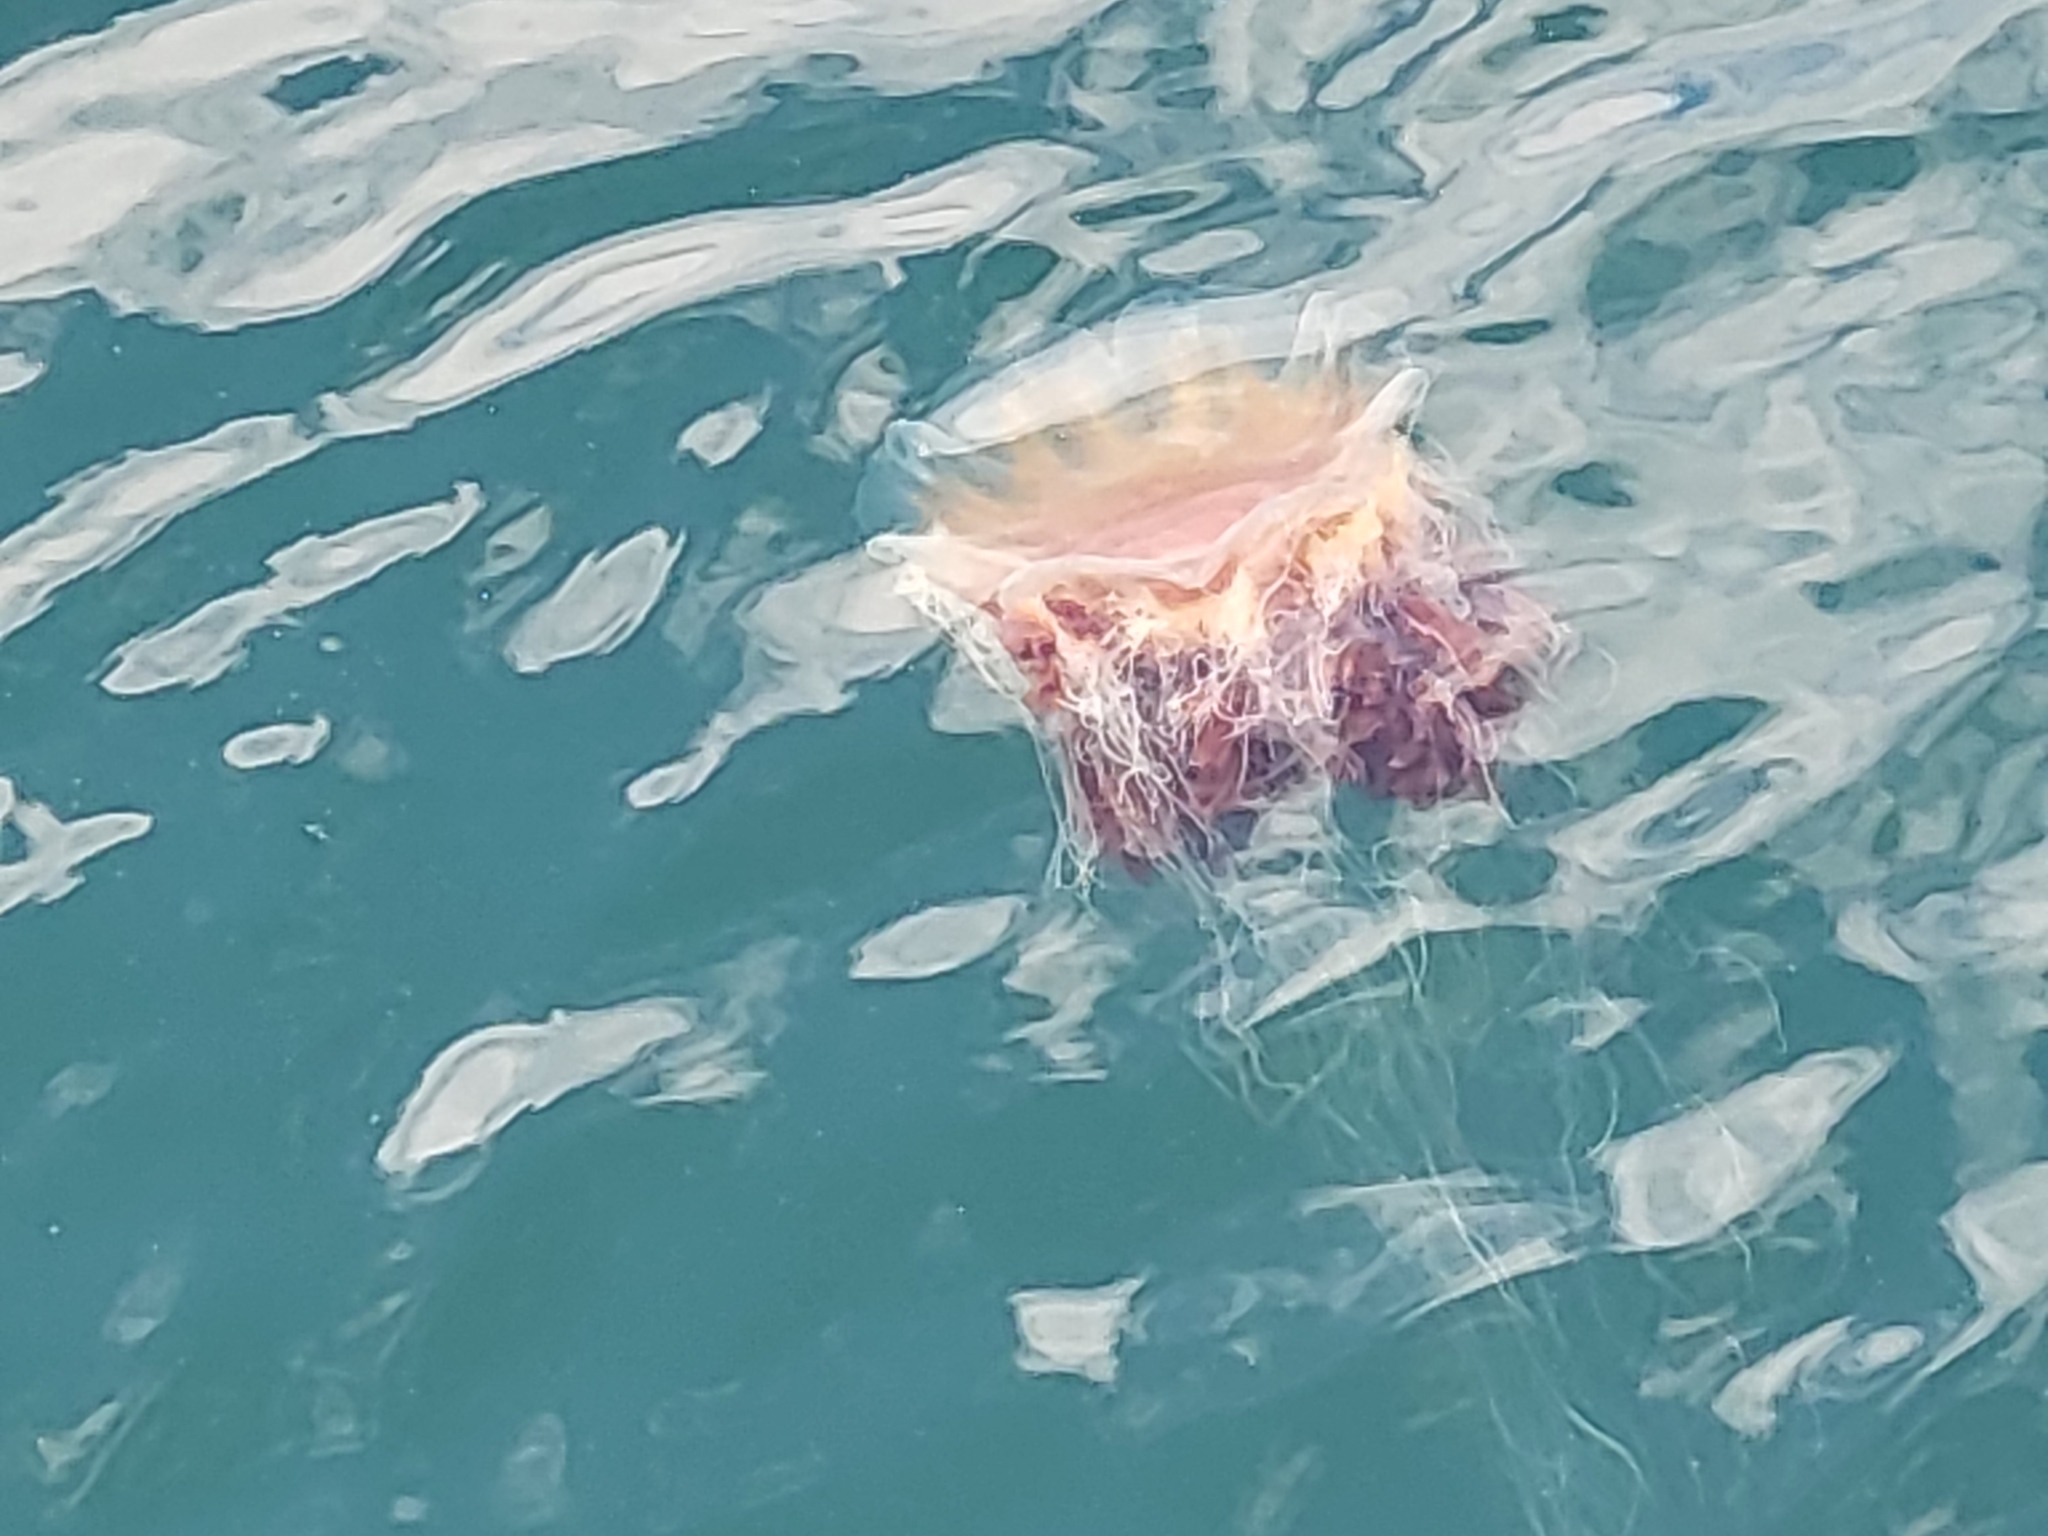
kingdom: Animalia
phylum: Cnidaria
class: Scyphozoa
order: Semaeostomeae
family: Cyaneidae
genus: Cyanea
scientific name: Cyanea capillata
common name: Lion's mane jellyfish
